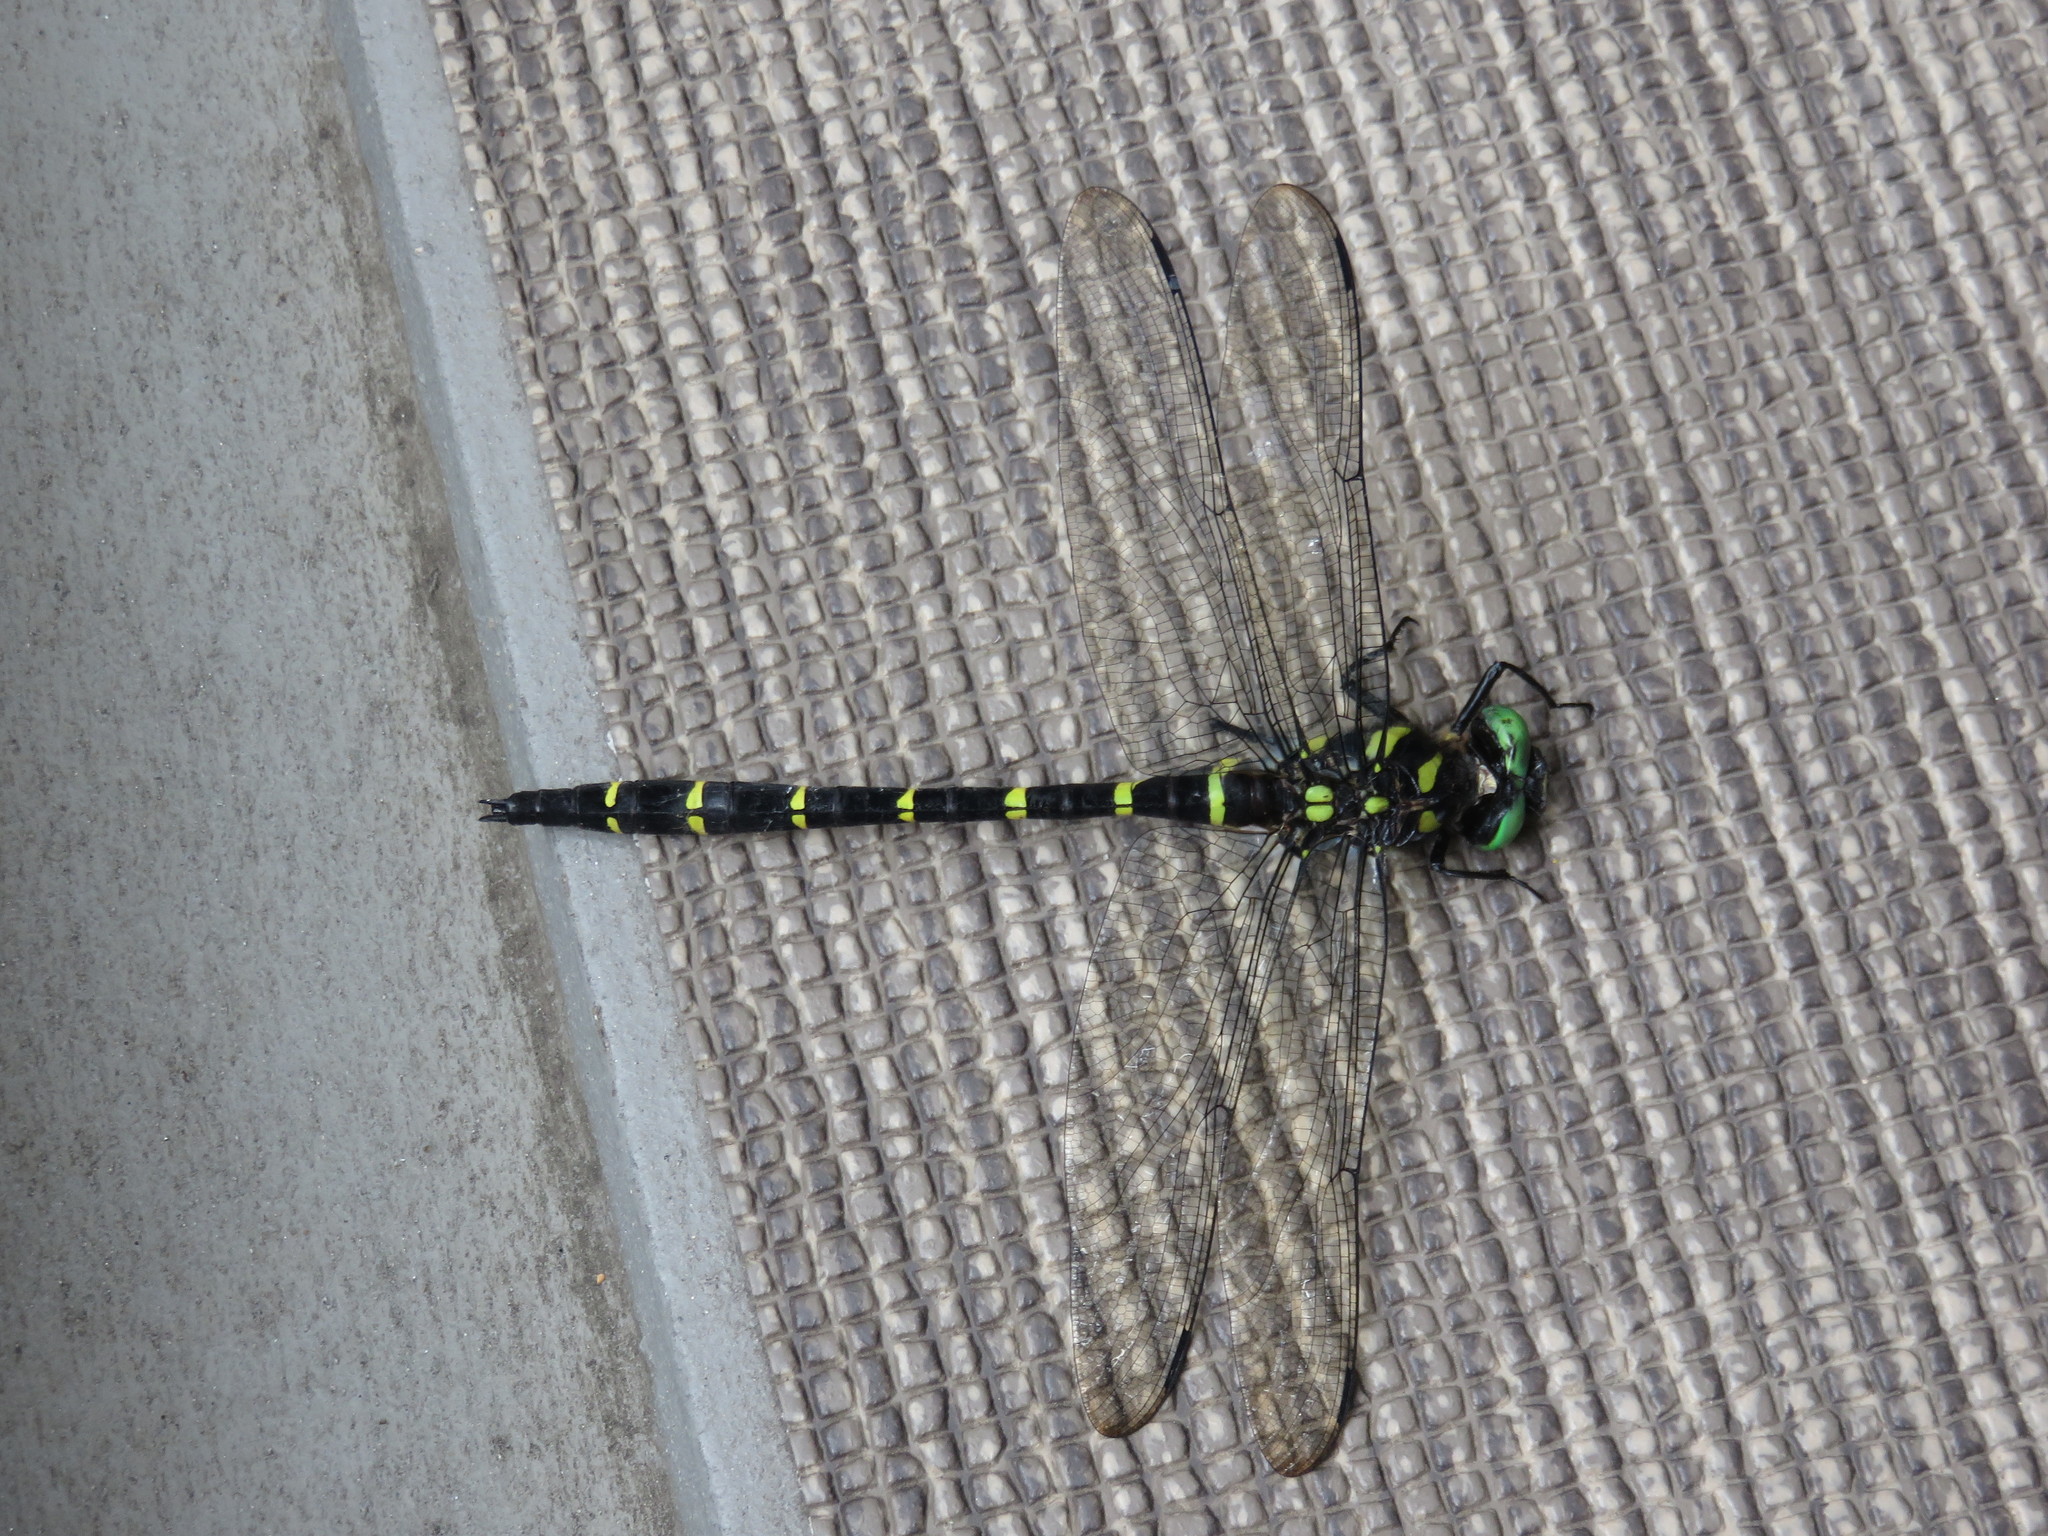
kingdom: Animalia
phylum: Arthropoda
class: Insecta
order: Odonata
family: Cordulegastridae
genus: Anotogaster
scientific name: Anotogaster sieboldii
